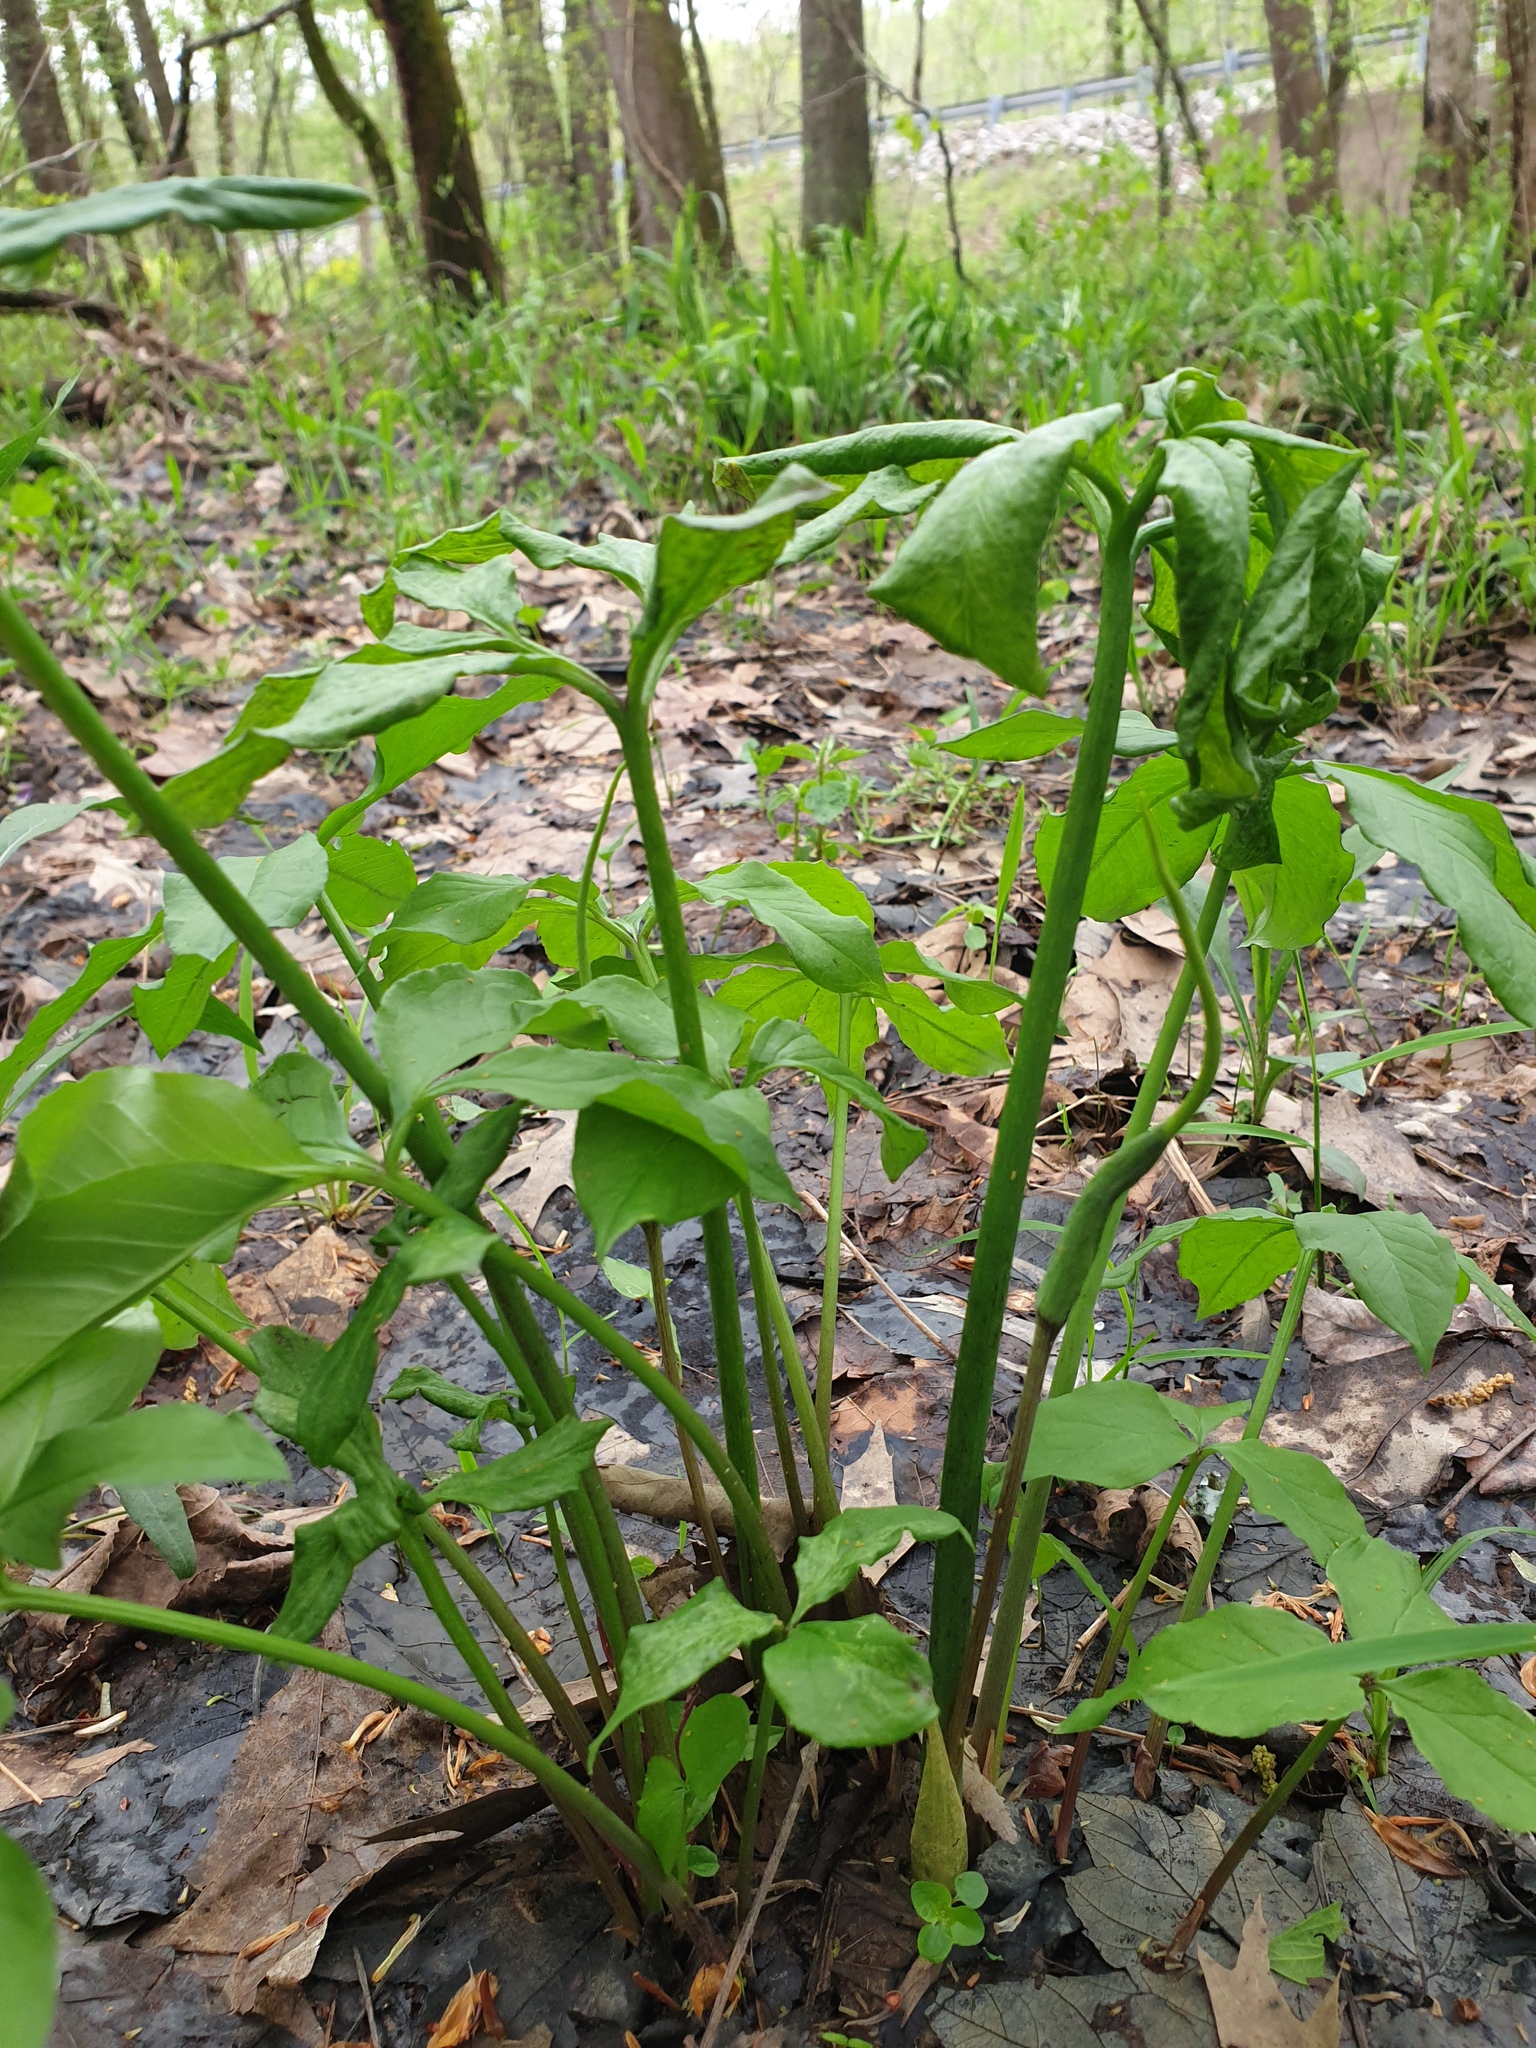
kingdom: Plantae
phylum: Tracheophyta
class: Liliopsida
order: Alismatales
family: Araceae
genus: Arisaema
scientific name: Arisaema dracontium
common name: Dragon-arum
